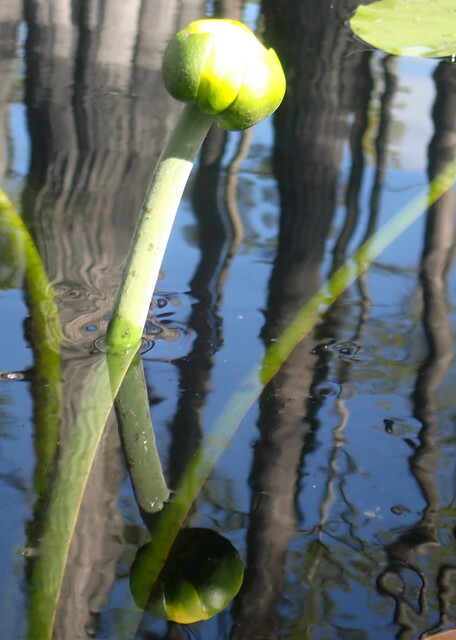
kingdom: Plantae
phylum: Tracheophyta
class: Magnoliopsida
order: Nymphaeales
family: Nymphaeaceae
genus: Nuphar
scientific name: Nuphar advena
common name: Spatter-dock
